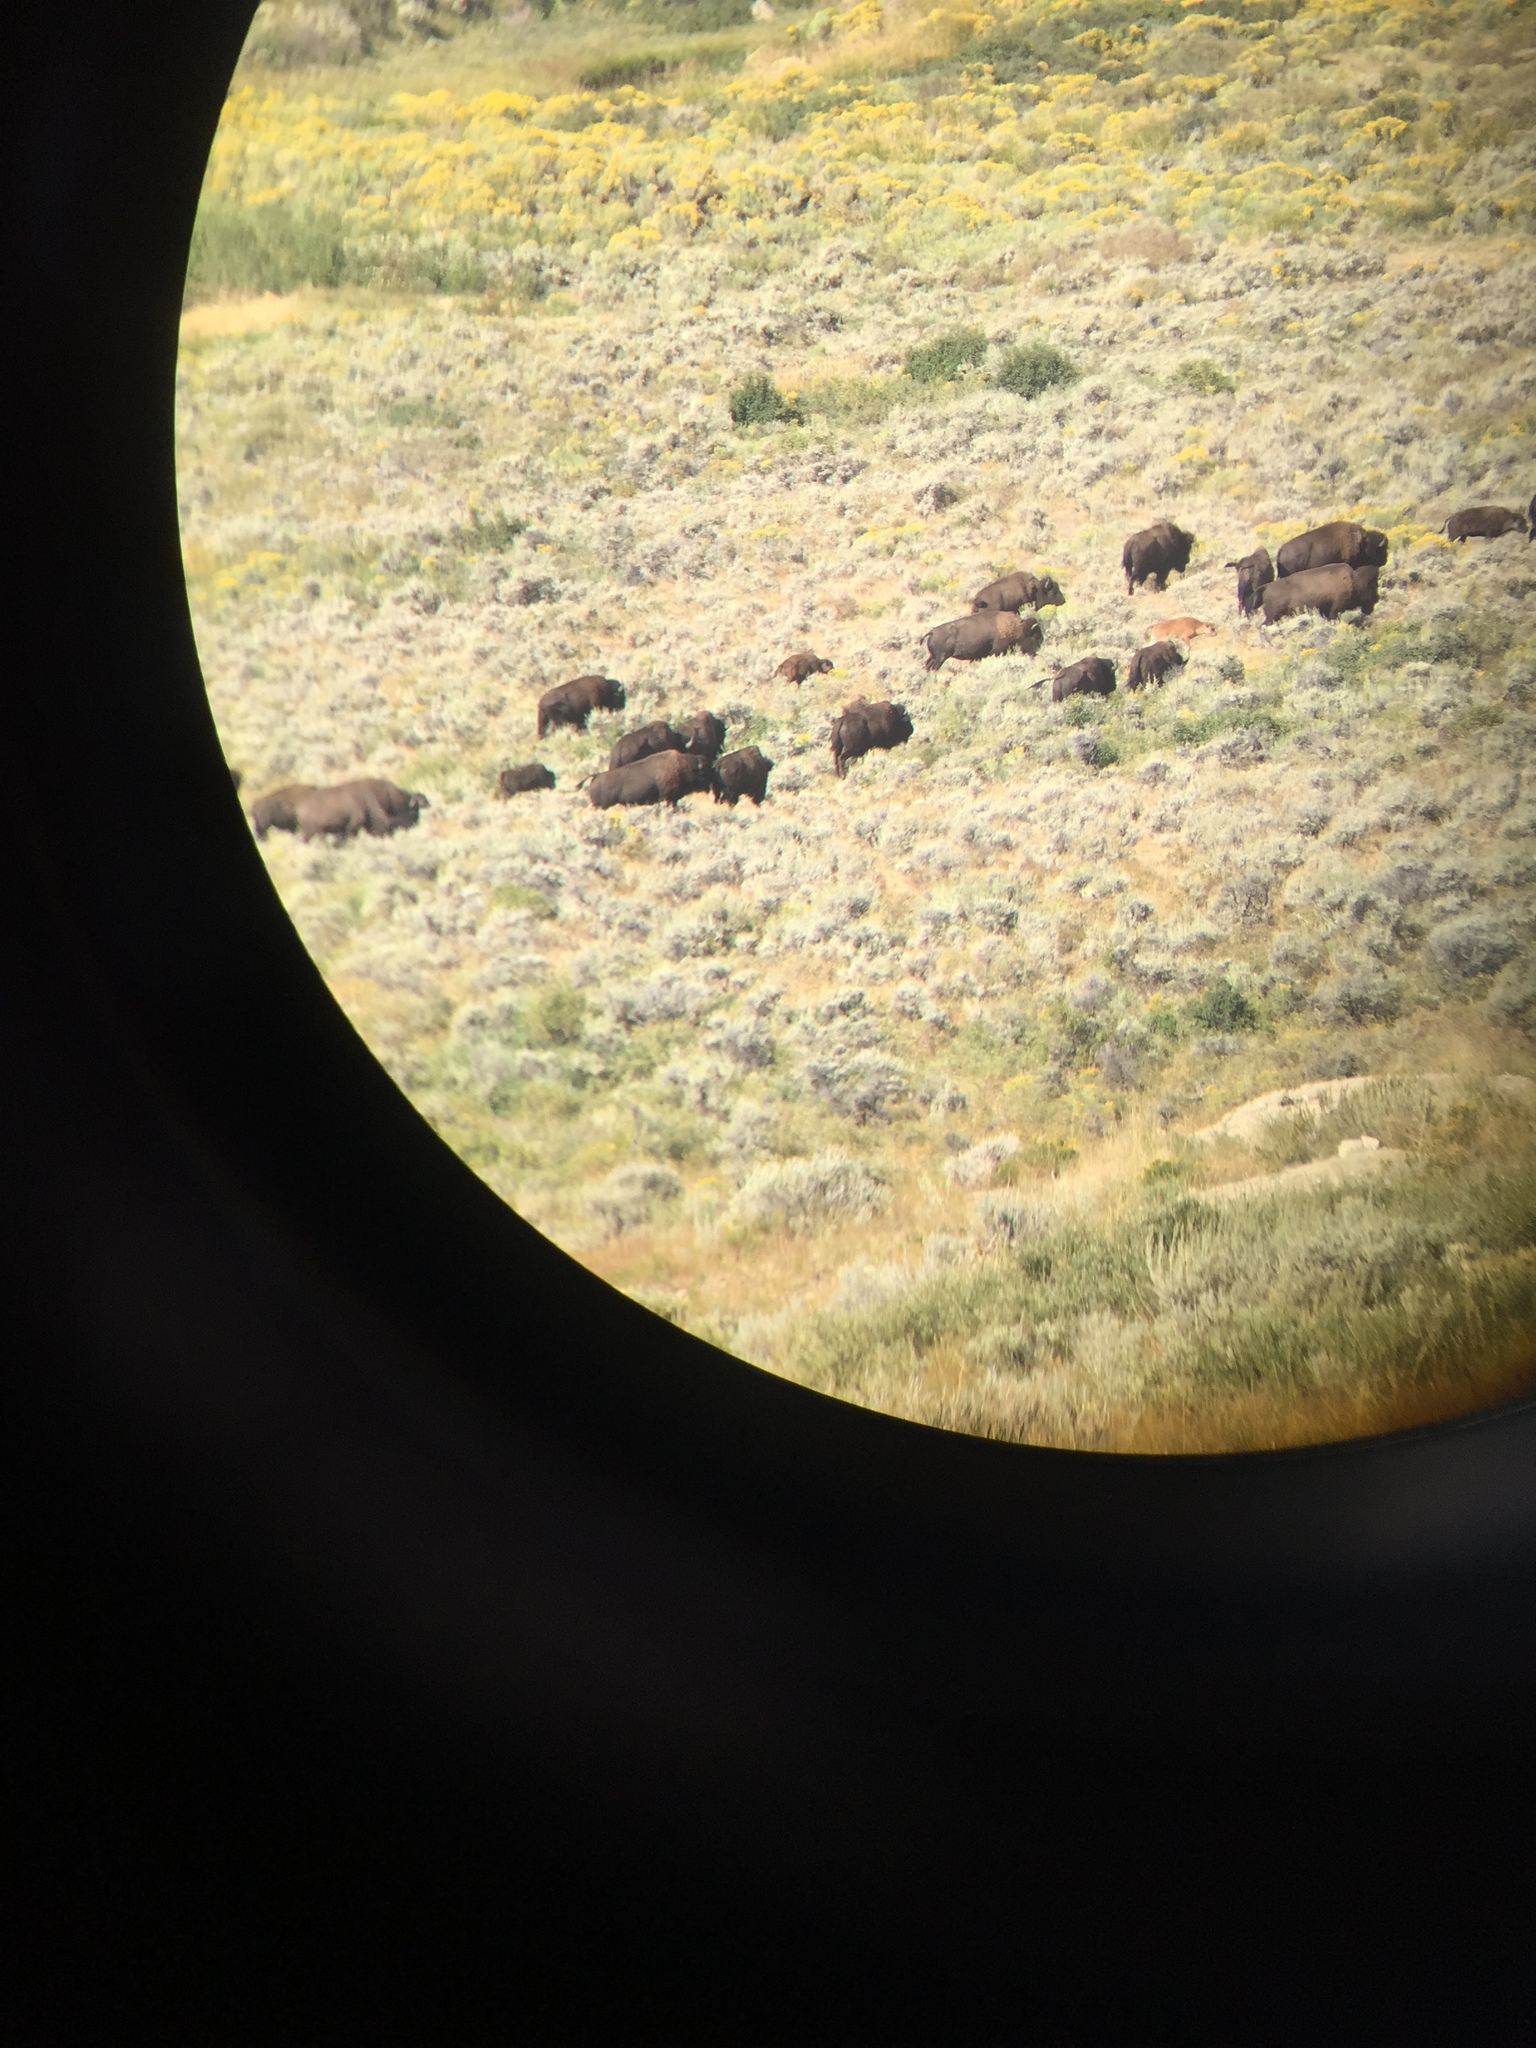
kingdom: Animalia
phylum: Chordata
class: Mammalia
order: Artiodactyla
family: Bovidae
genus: Bison
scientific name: Bison bison
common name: American bison
